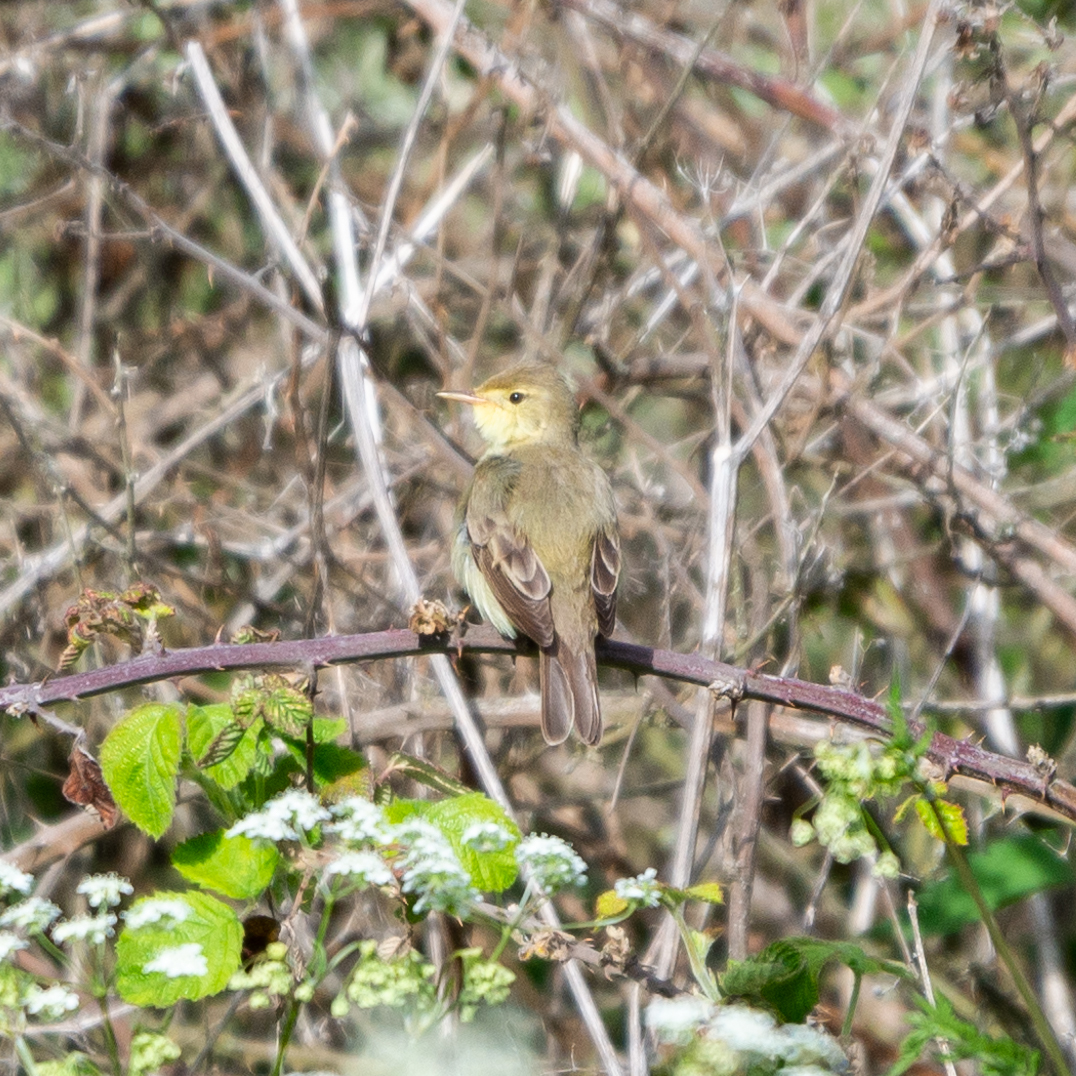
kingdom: Animalia
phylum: Chordata
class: Aves
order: Passeriformes
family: Acrocephalidae
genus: Hippolais
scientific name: Hippolais polyglotta
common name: Melodious warbler
